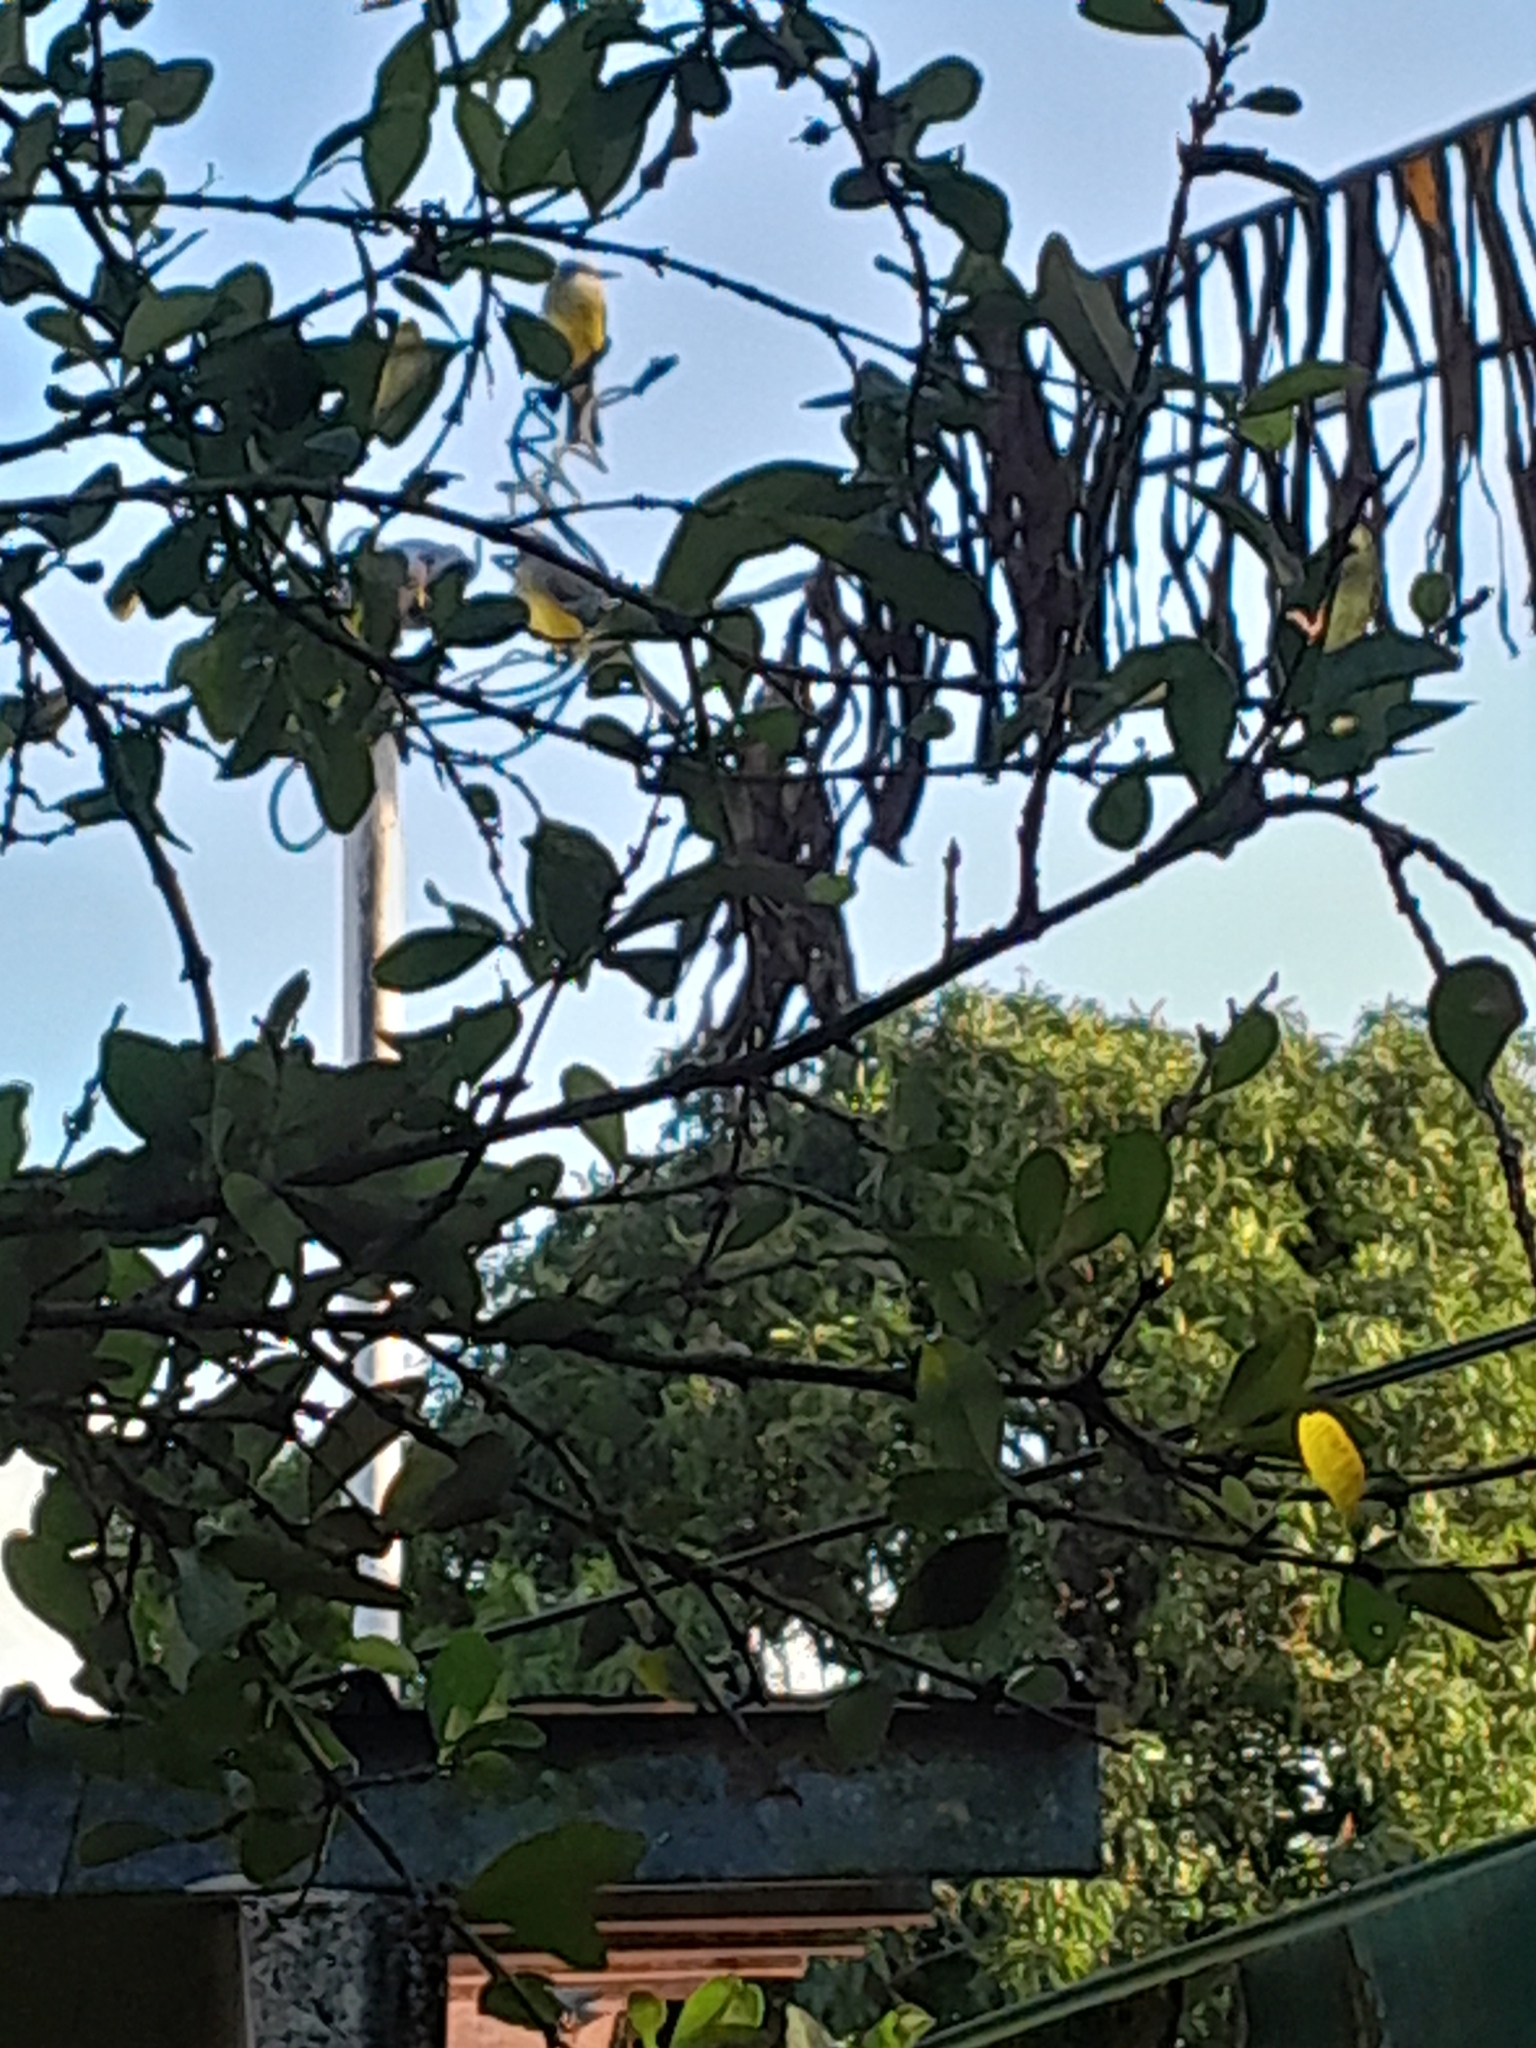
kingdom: Animalia
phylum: Chordata
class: Aves
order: Passeriformes
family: Tyrannidae
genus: Tyrannus
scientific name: Tyrannus melancholicus
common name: Tropical kingbird
